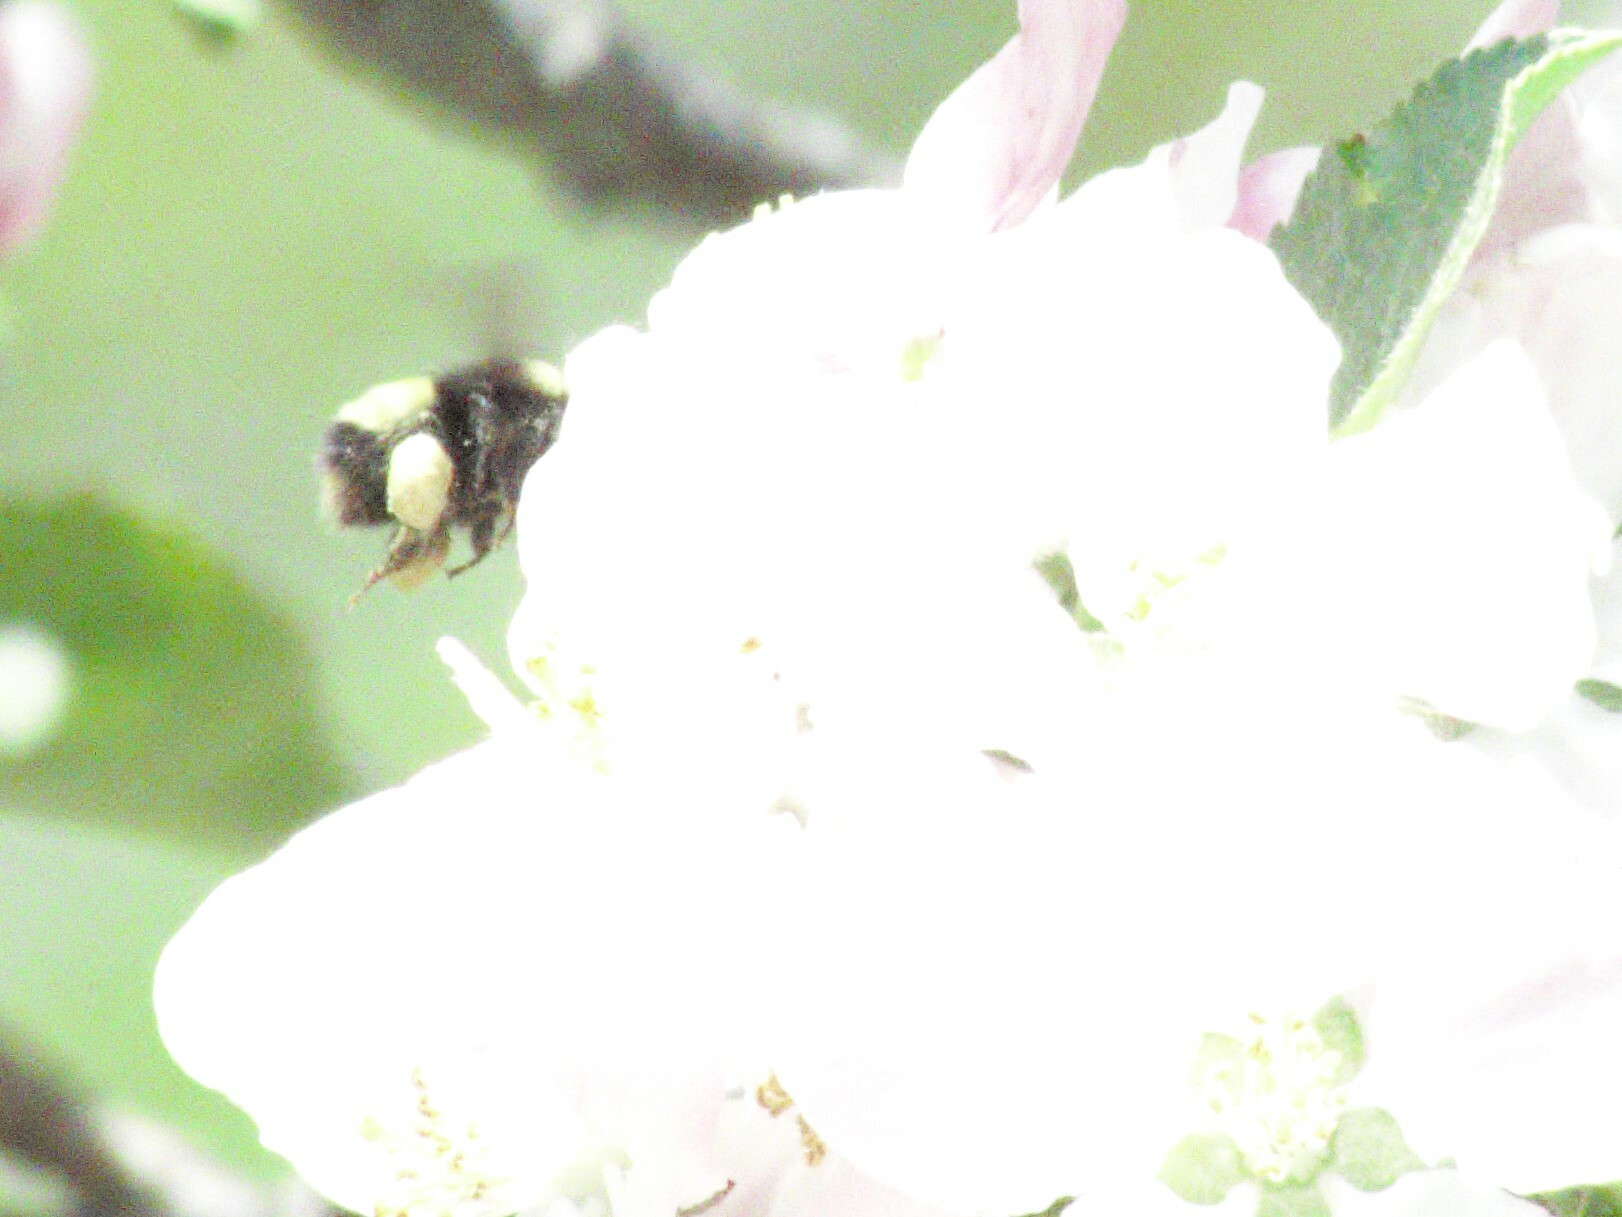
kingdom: Animalia
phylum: Arthropoda
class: Insecta
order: Hymenoptera
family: Apidae
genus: Bombus
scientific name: Bombus terricola
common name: Yellow-banded bumble bee
